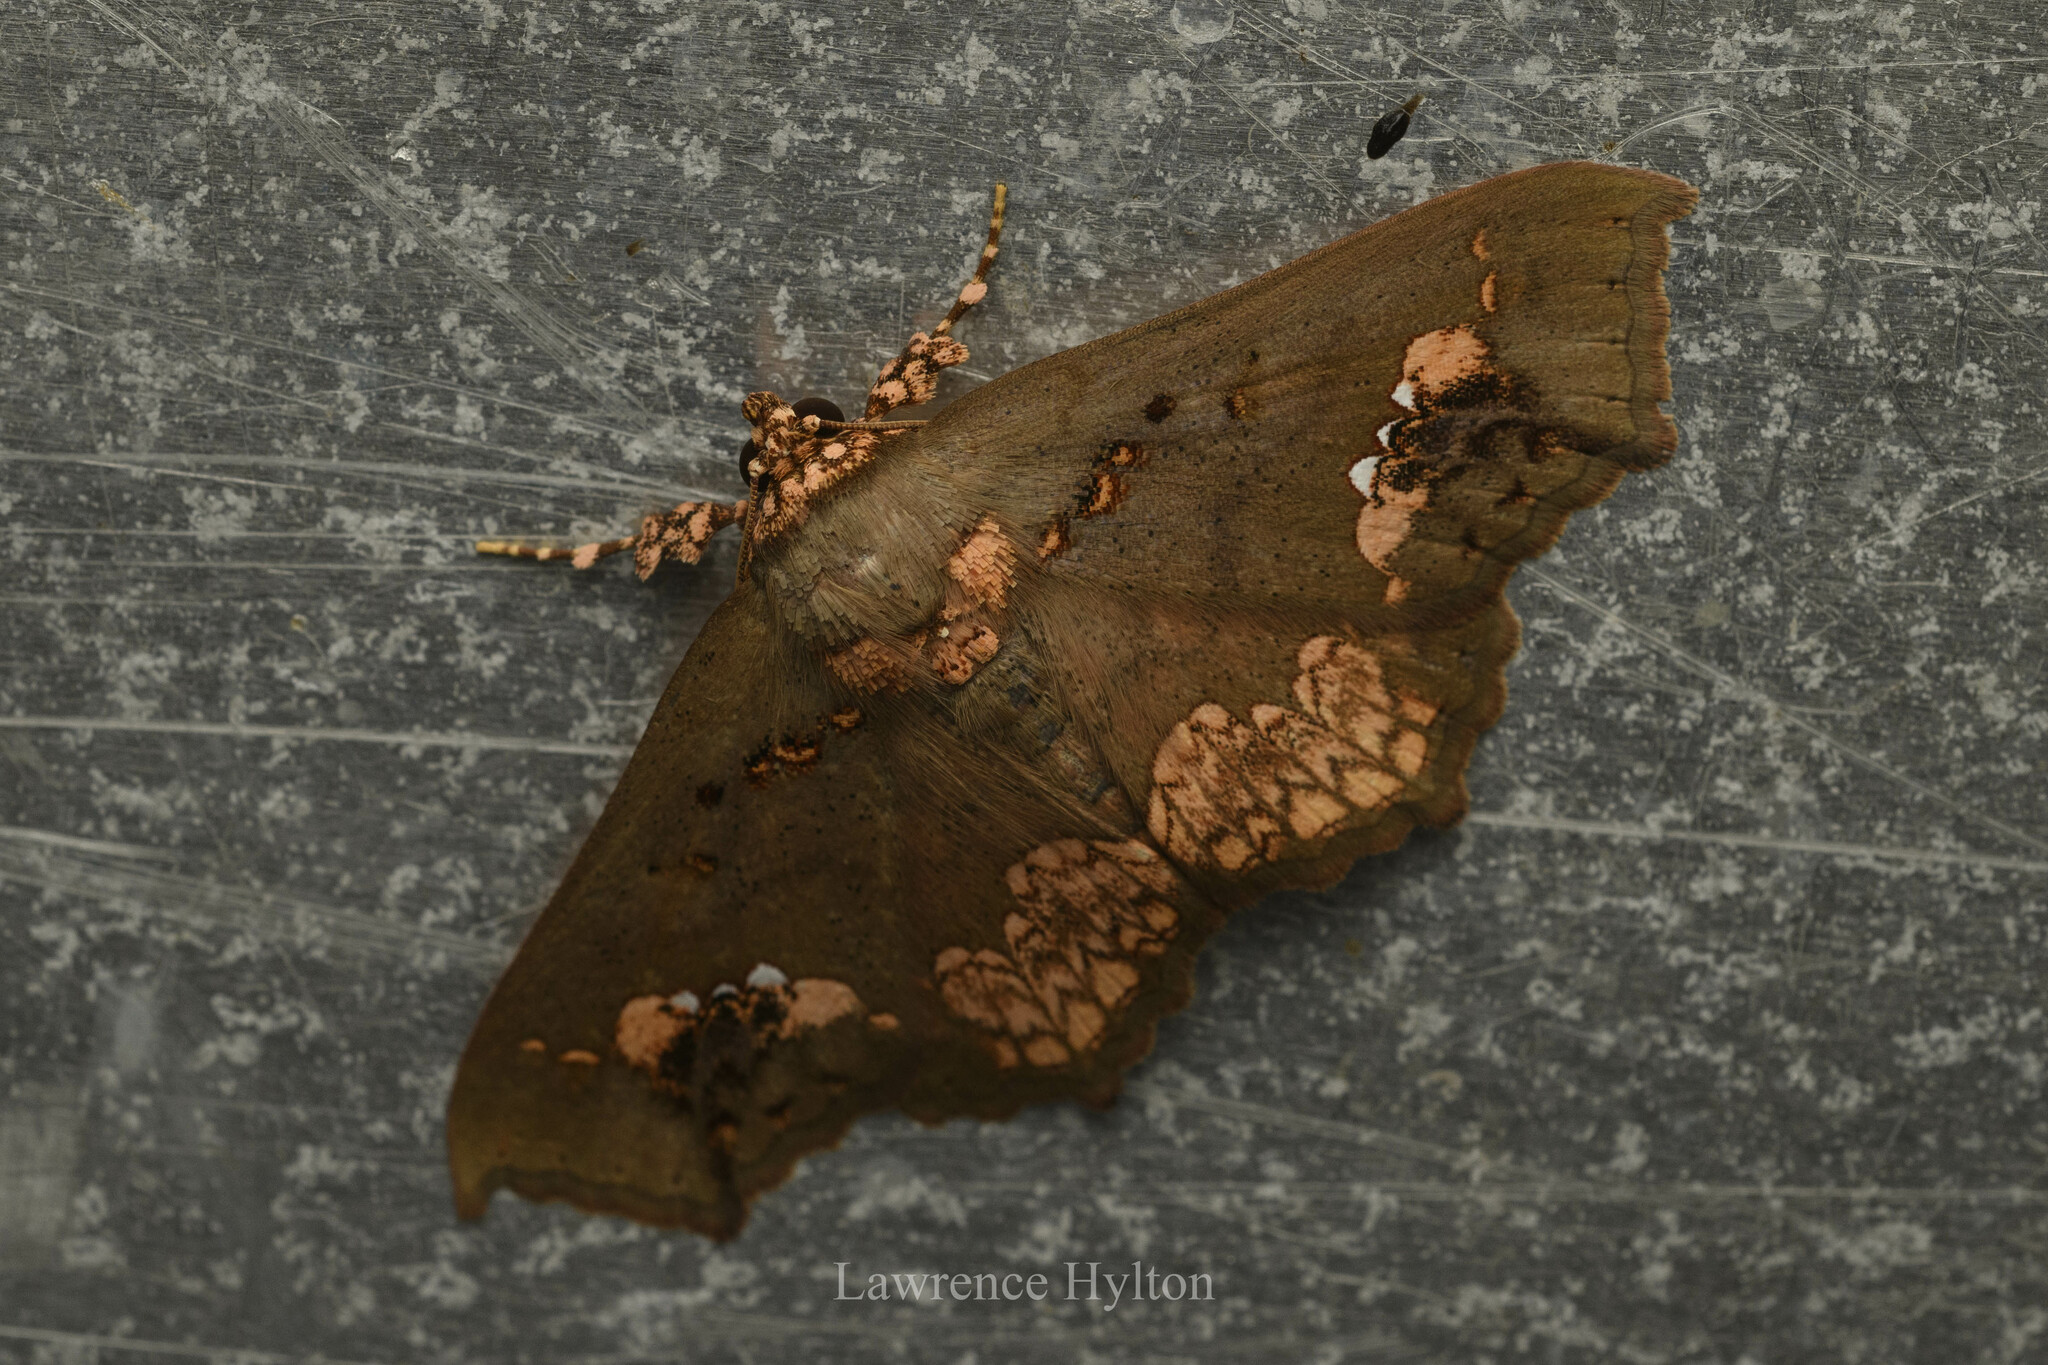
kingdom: Animalia
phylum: Arthropoda
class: Insecta
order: Lepidoptera
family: Erebidae
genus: Lopharthrum
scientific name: Lopharthrum comprimens
